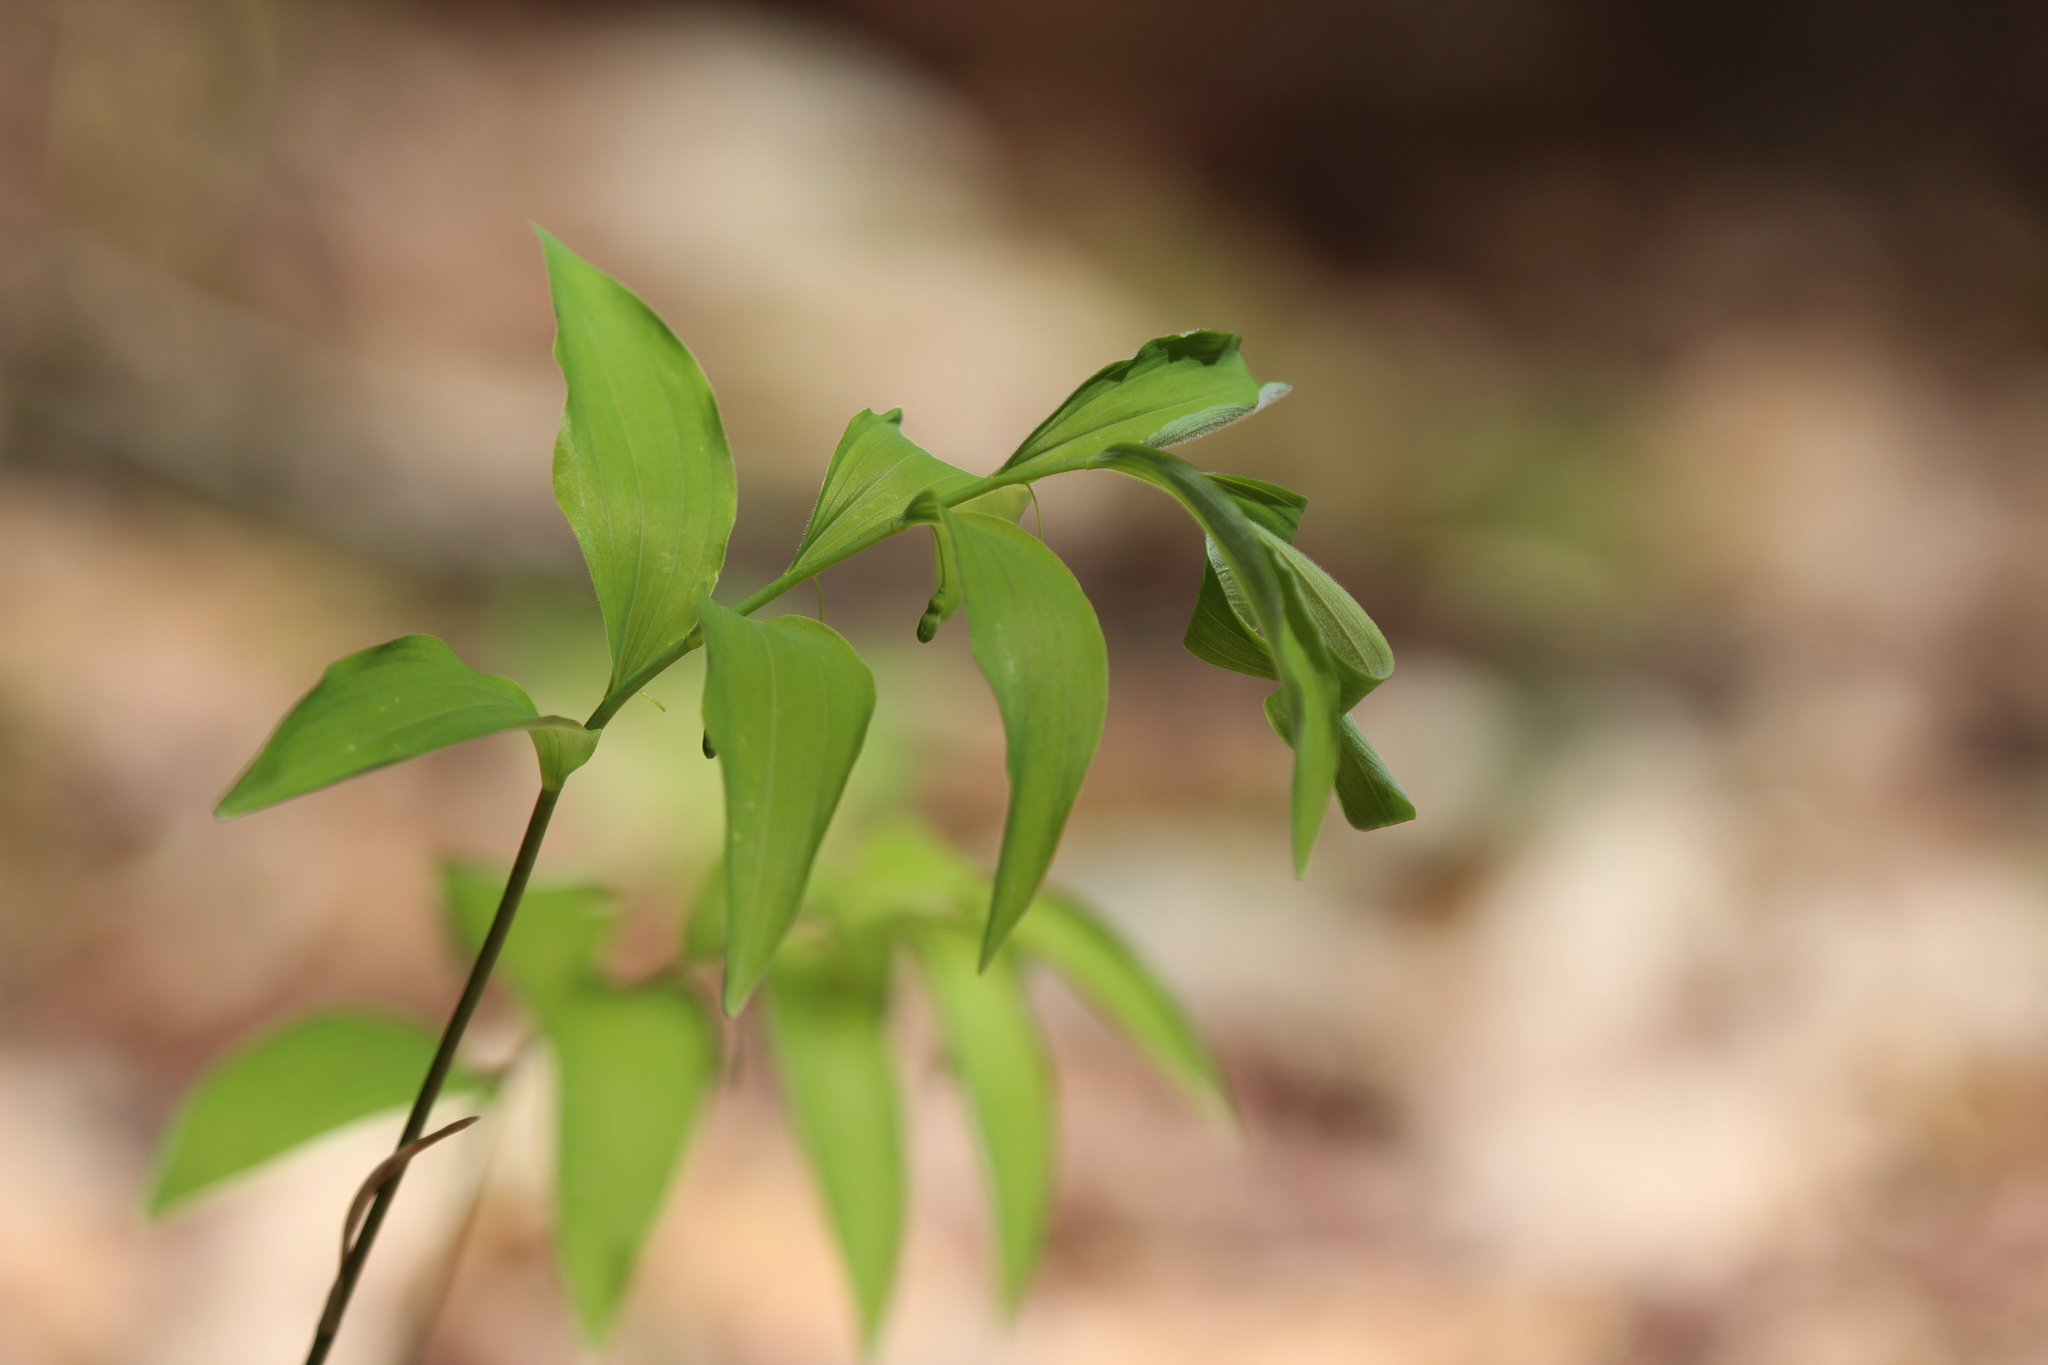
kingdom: Plantae
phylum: Tracheophyta
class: Liliopsida
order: Asparagales
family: Asparagaceae
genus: Polygonatum
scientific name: Polygonatum pubescens
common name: Downy solomon's seal
